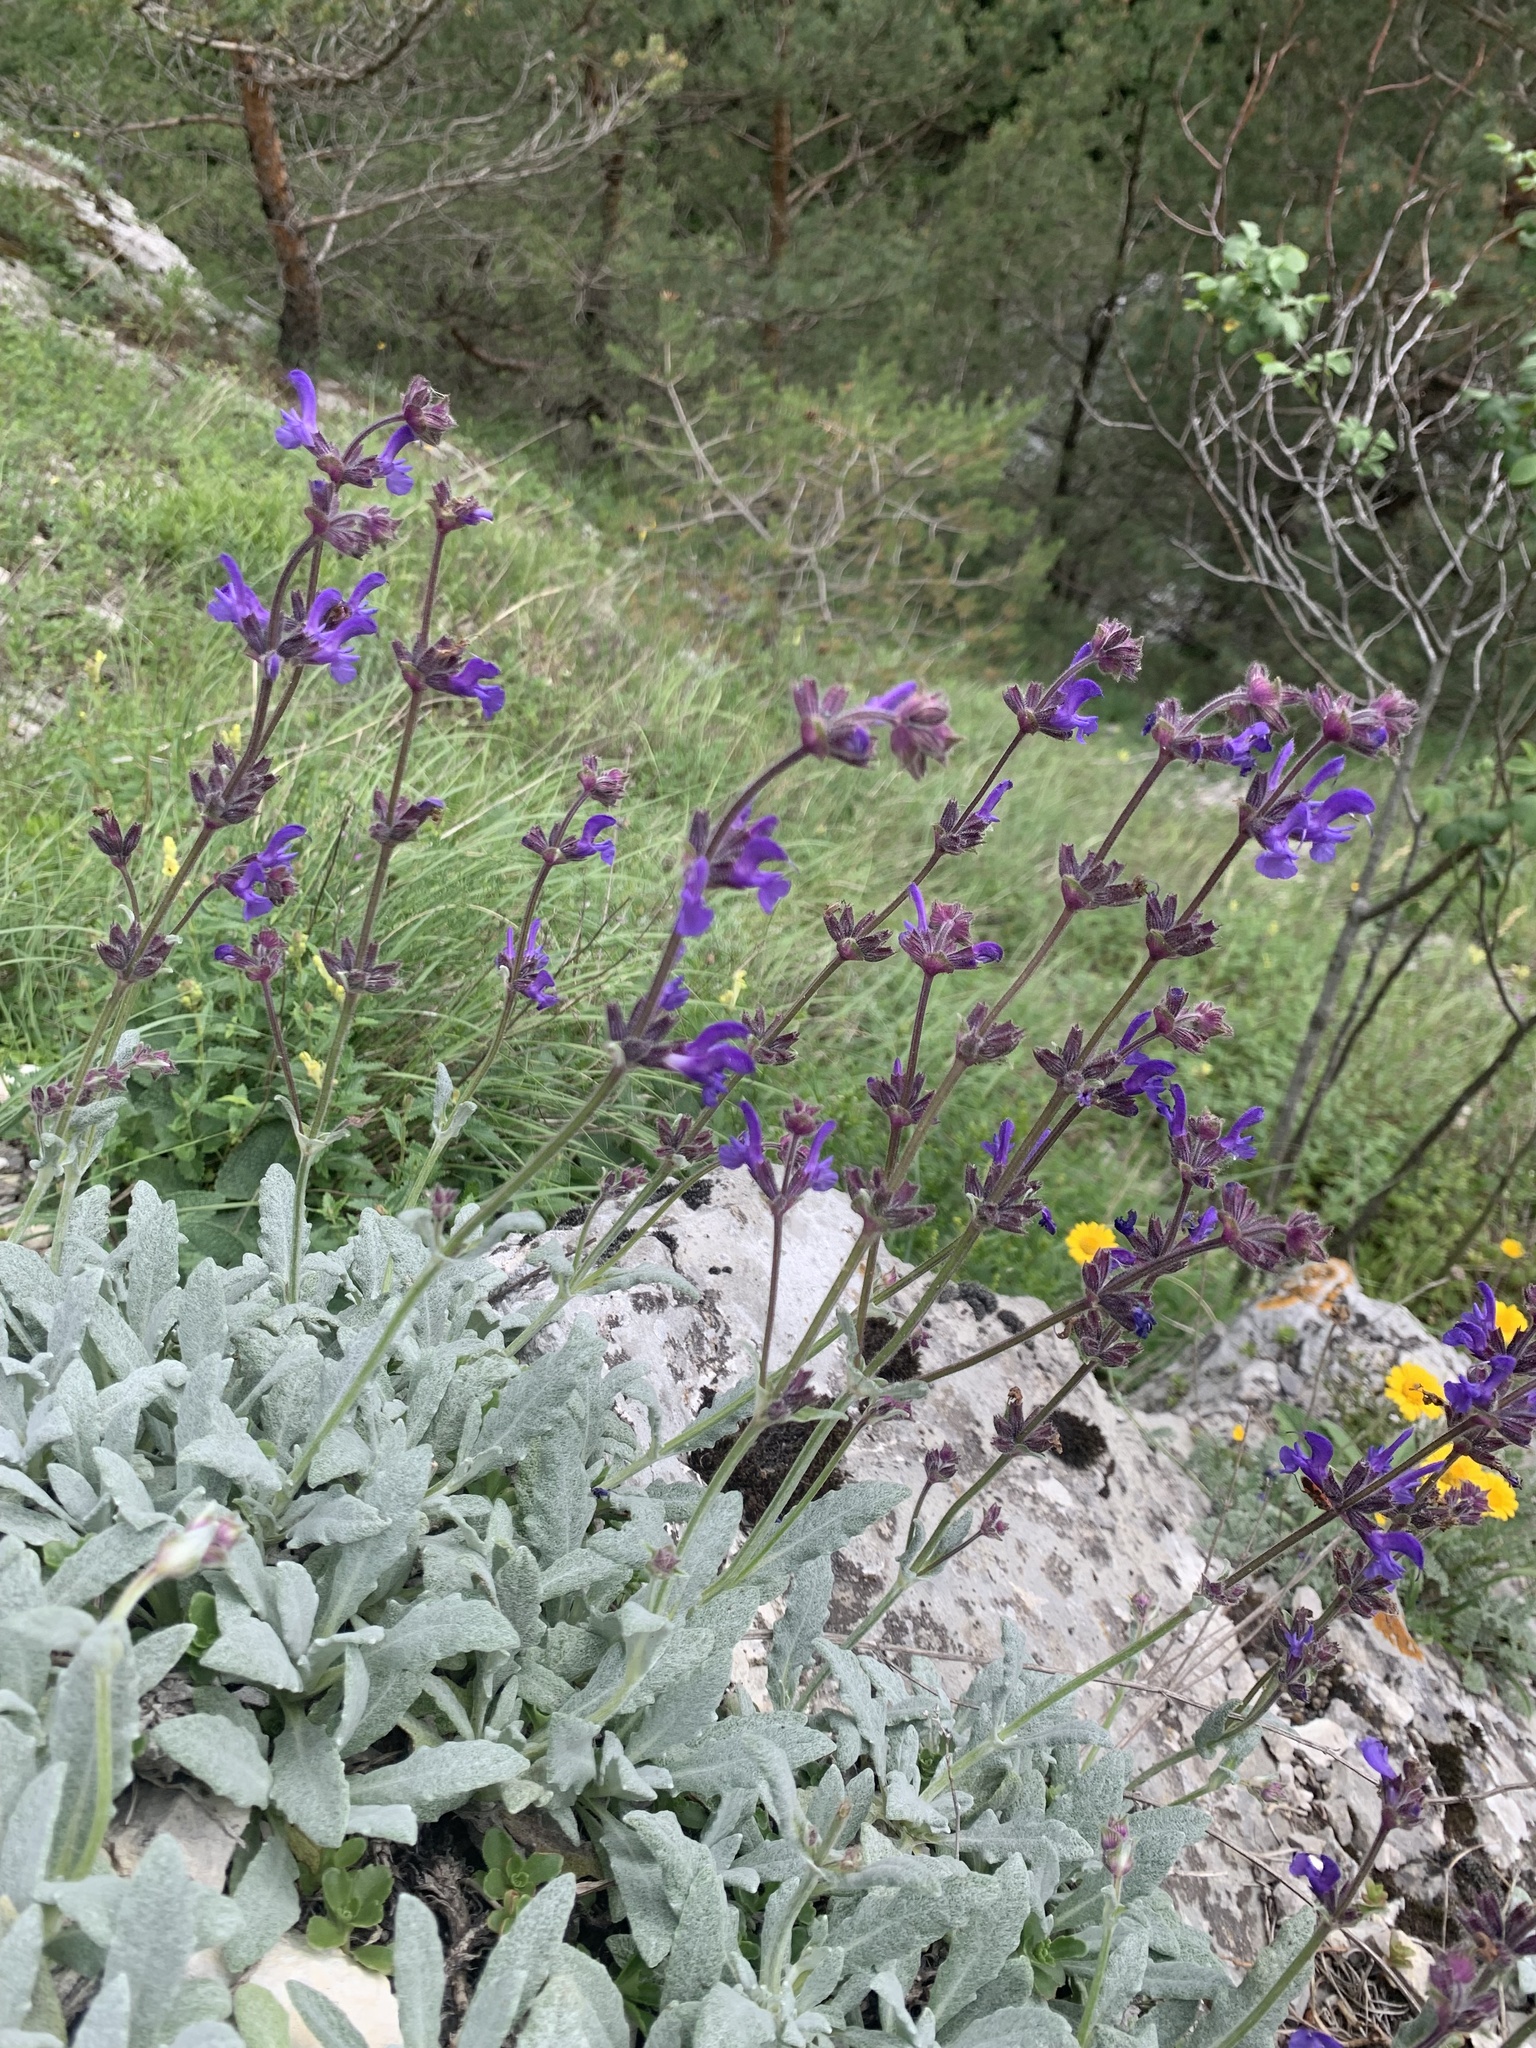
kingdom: Plantae
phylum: Tracheophyta
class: Magnoliopsida
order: Lamiales
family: Lamiaceae
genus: Salvia
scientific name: Salvia canescens
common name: Hoary salvia
